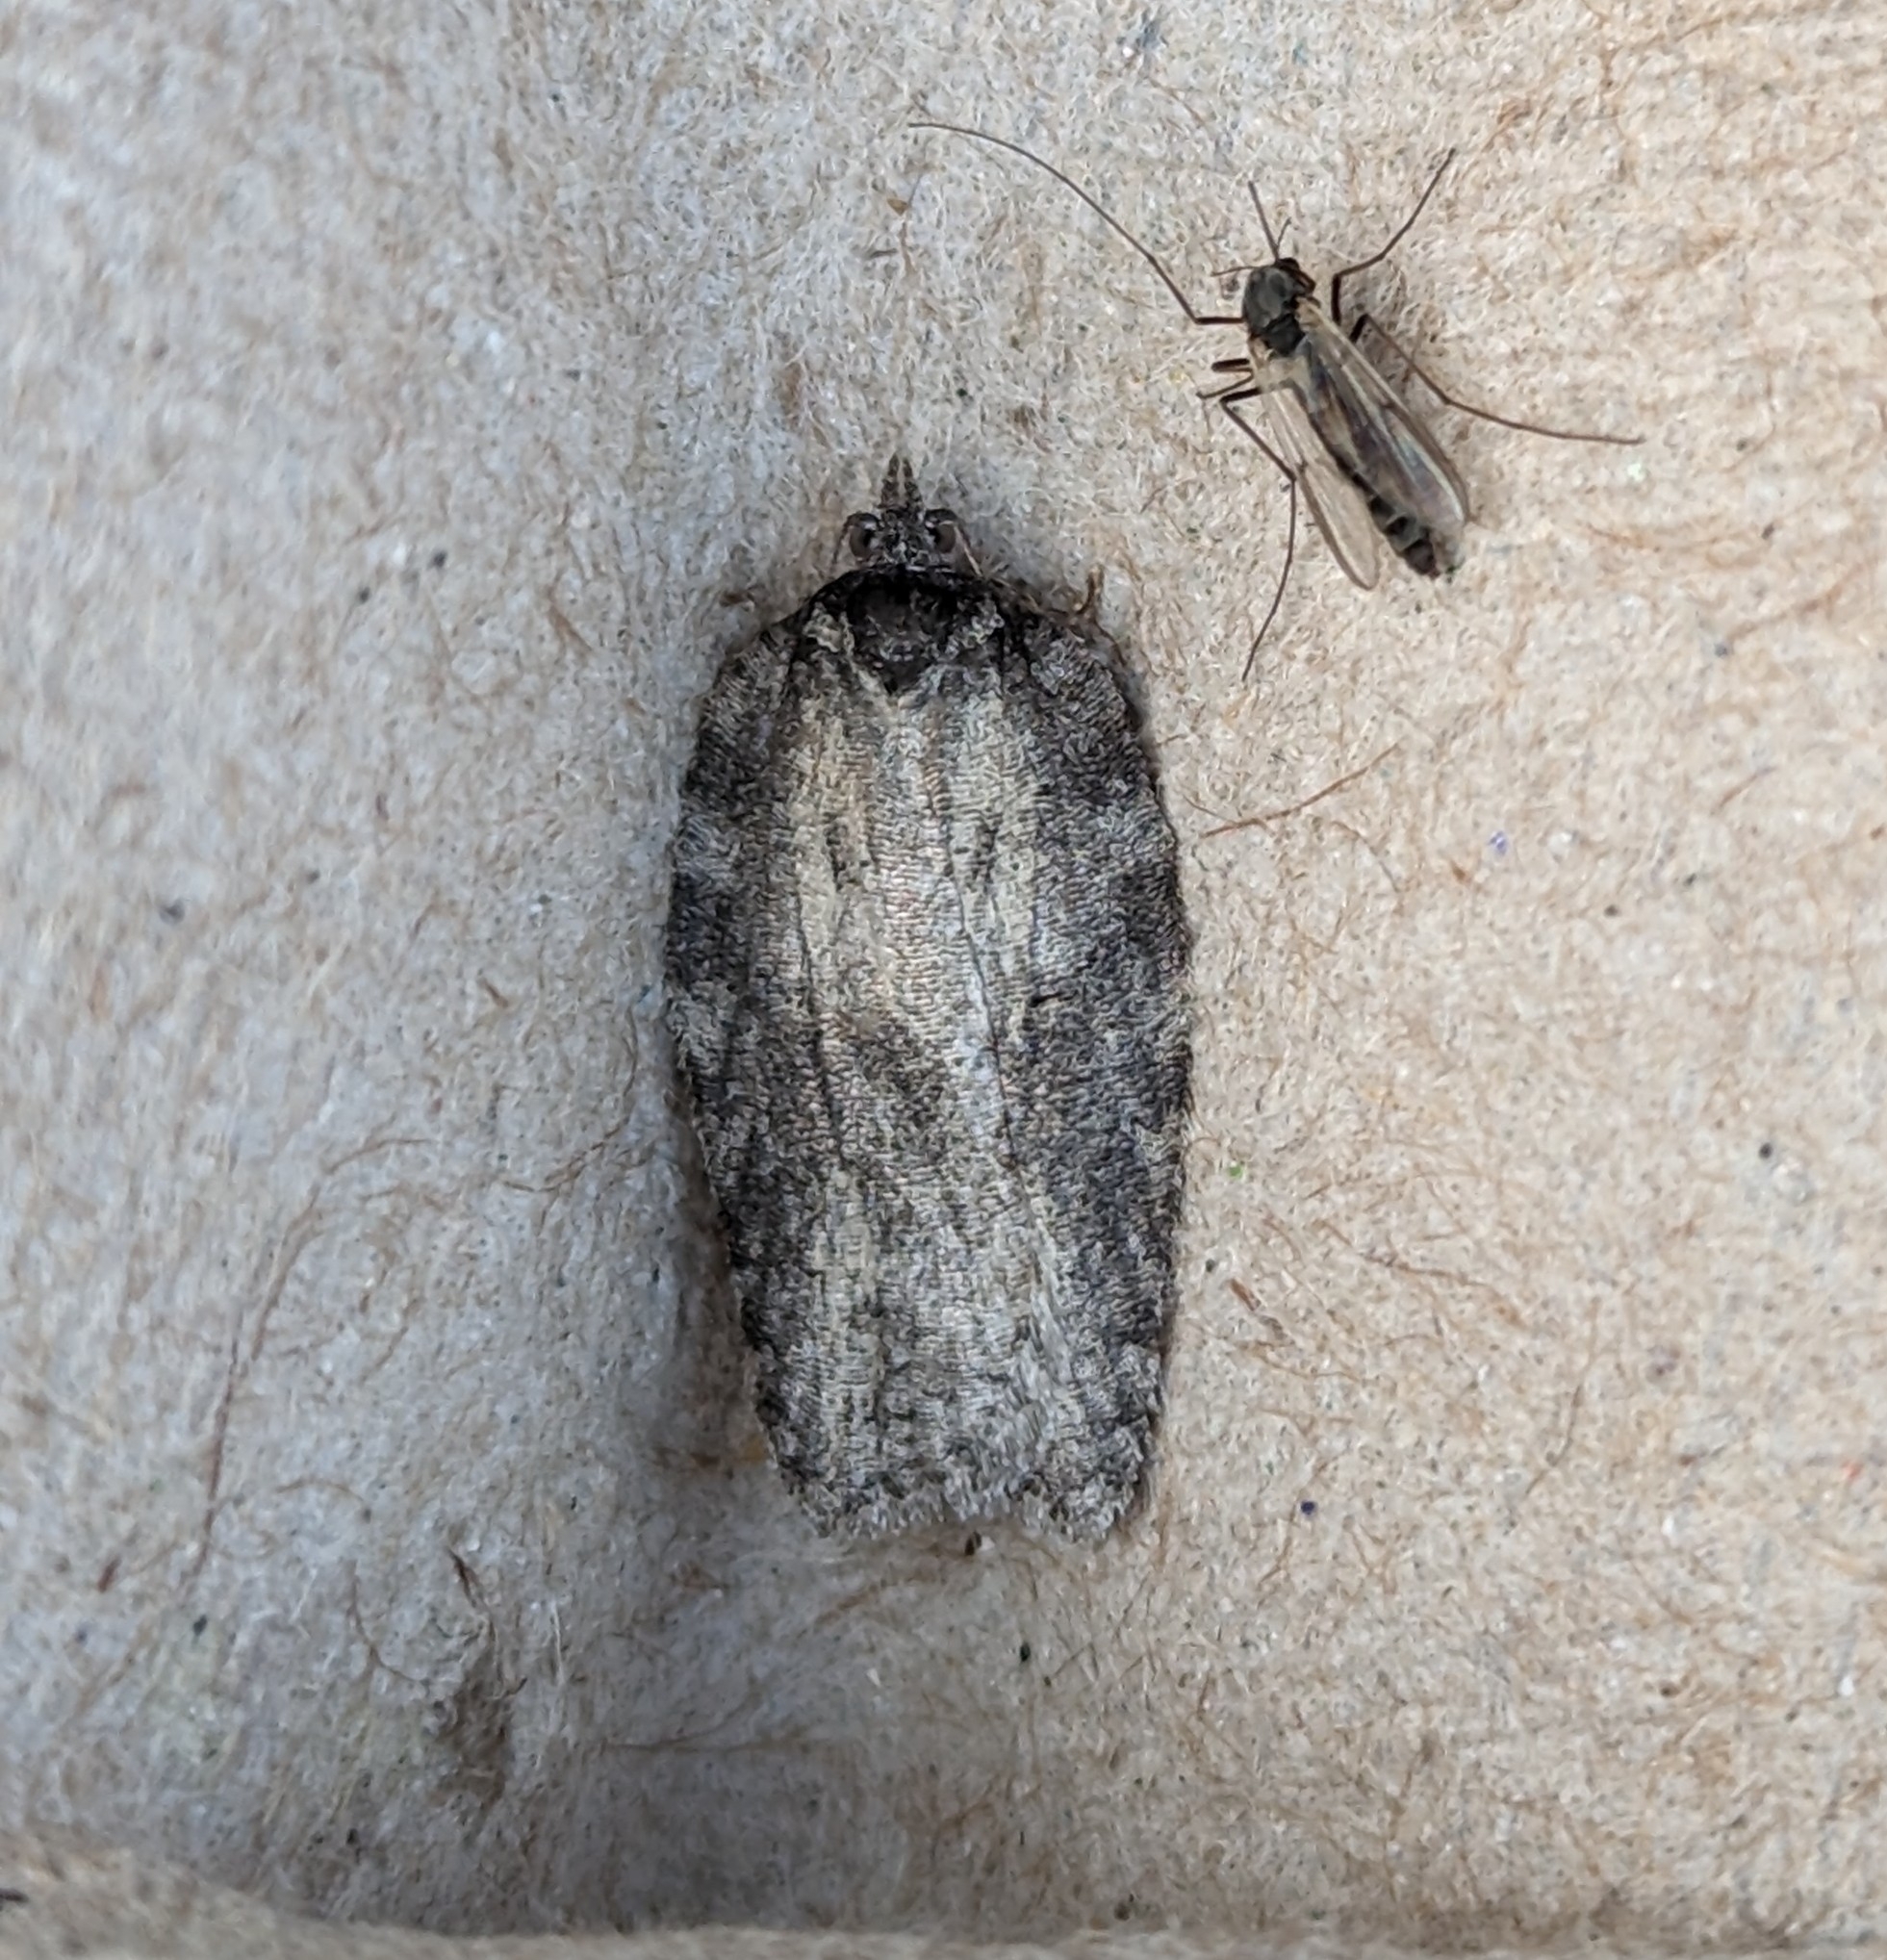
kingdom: Animalia
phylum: Arthropoda
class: Insecta
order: Lepidoptera
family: Tortricidae
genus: Acleris
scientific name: Acleris nigrolinea
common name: Black-lined acleris
